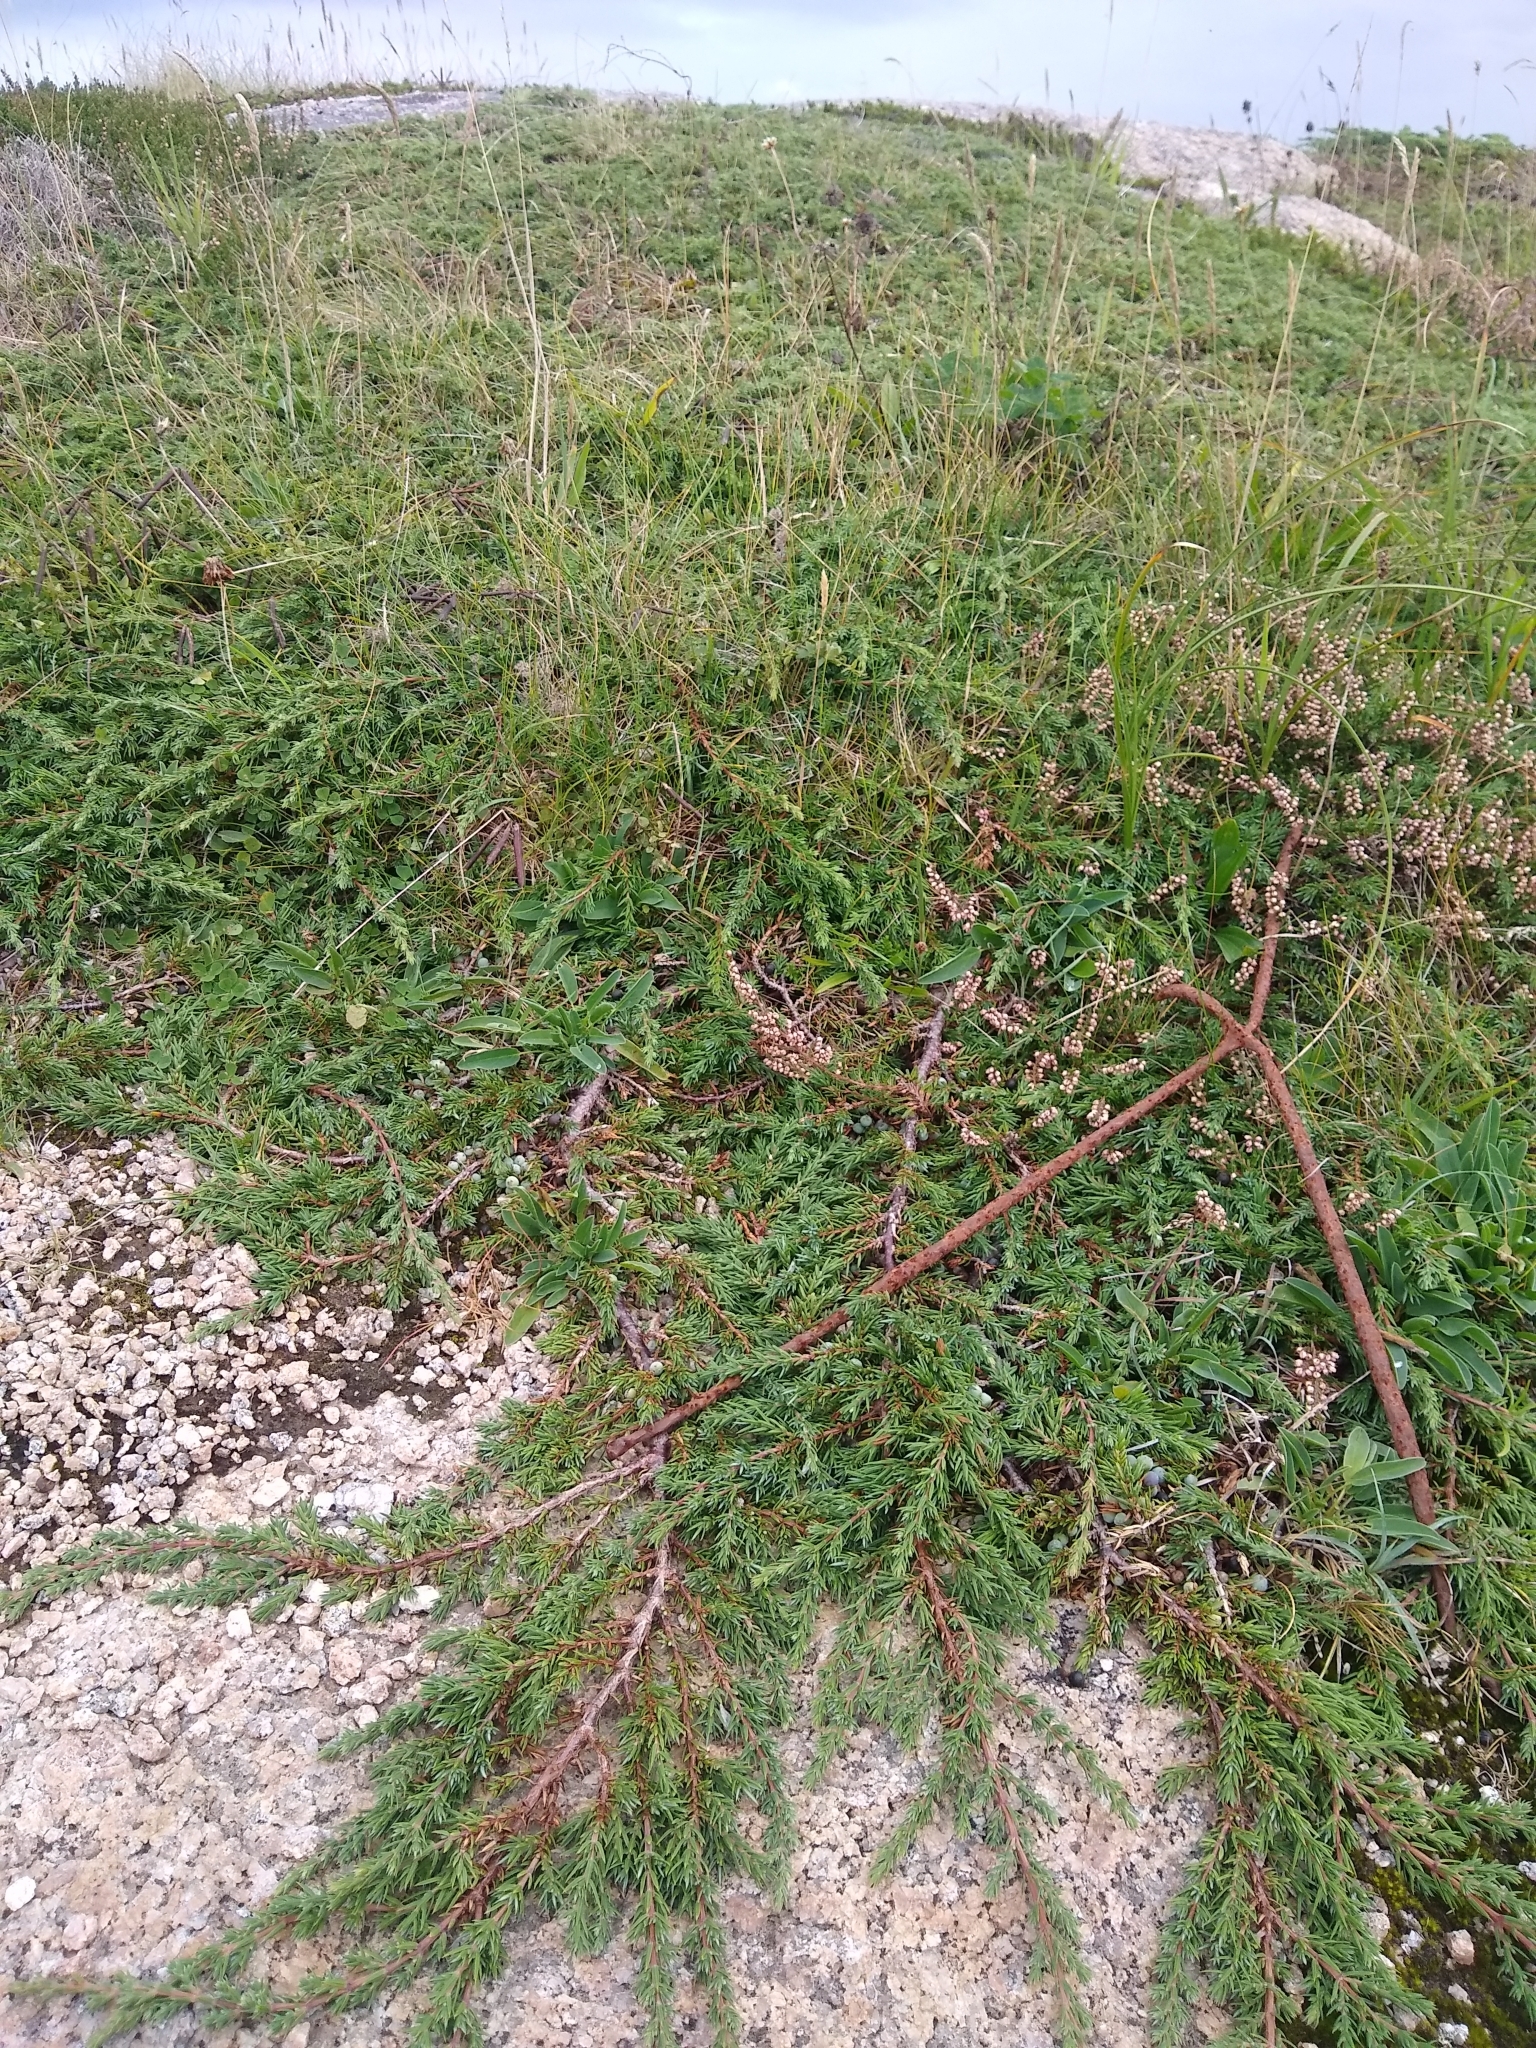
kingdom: Plantae
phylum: Tracheophyta
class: Pinopsida
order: Pinales
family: Cupressaceae
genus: Juniperus
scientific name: Juniperus communis
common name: Common juniper
